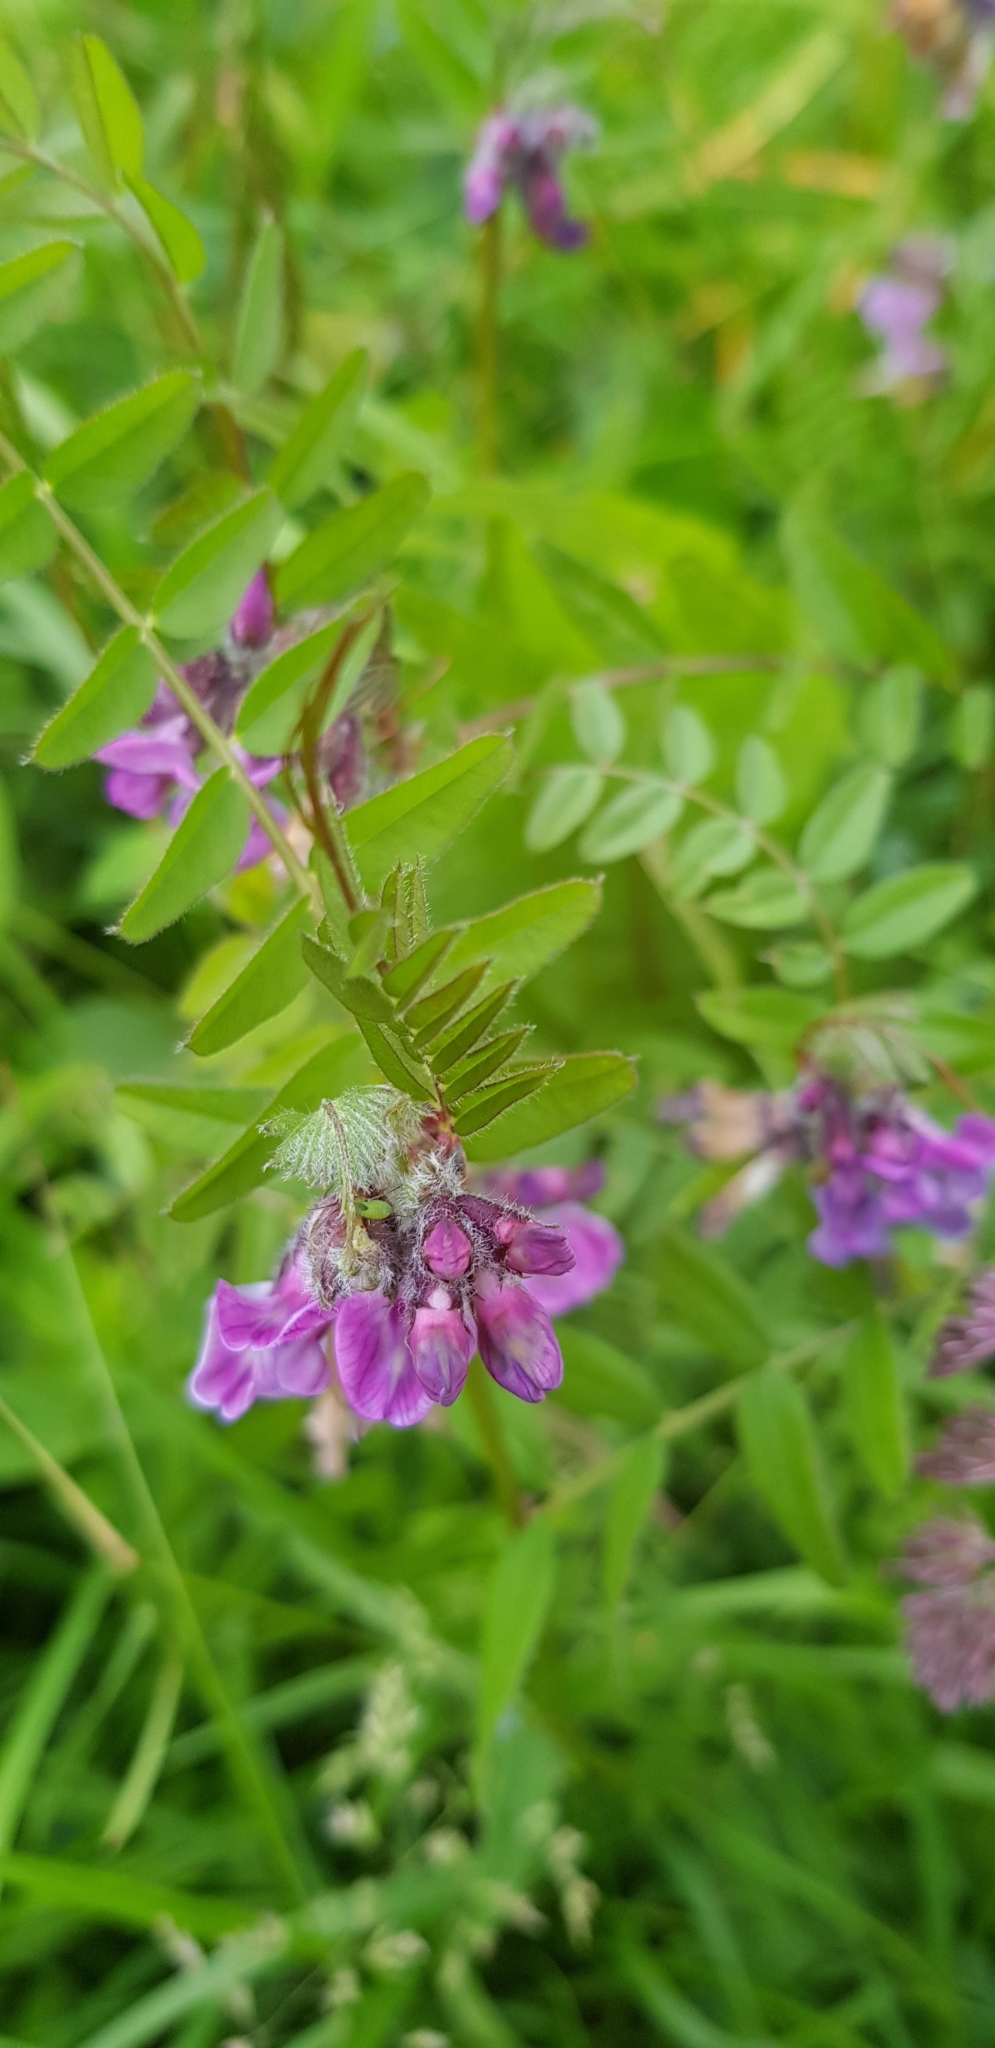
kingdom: Plantae
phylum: Tracheophyta
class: Magnoliopsida
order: Fabales
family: Fabaceae
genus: Vicia
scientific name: Vicia sepium
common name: Bush vetch
